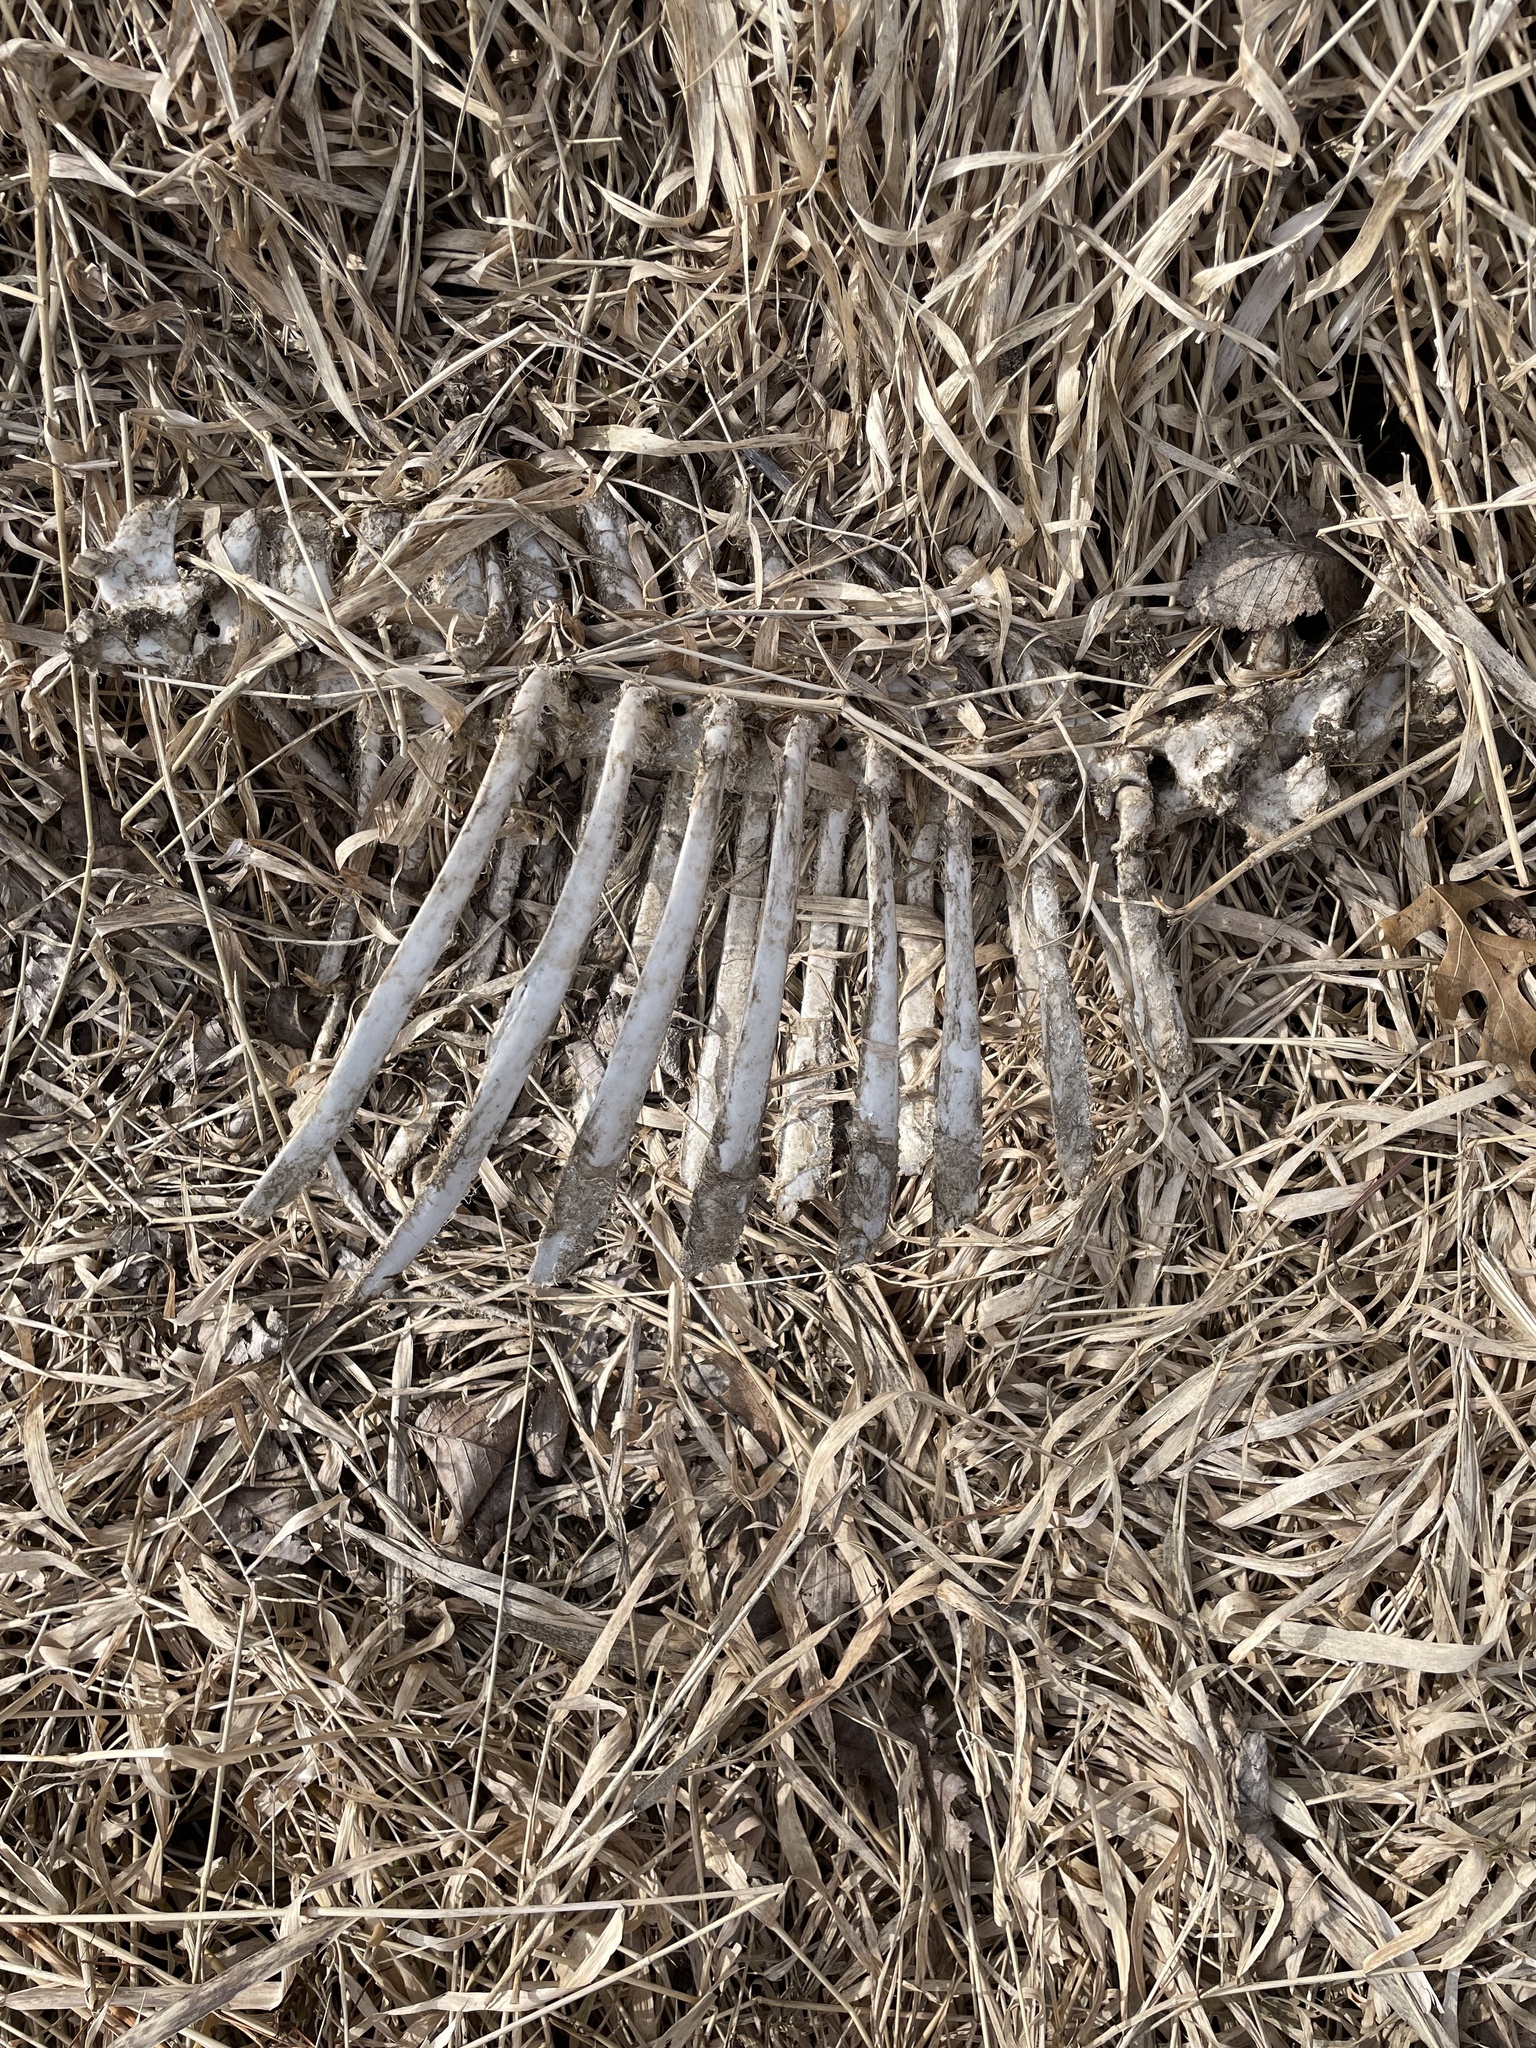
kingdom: Animalia
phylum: Chordata
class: Mammalia
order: Artiodactyla
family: Cervidae
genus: Odocoileus
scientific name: Odocoileus virginianus
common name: White-tailed deer
